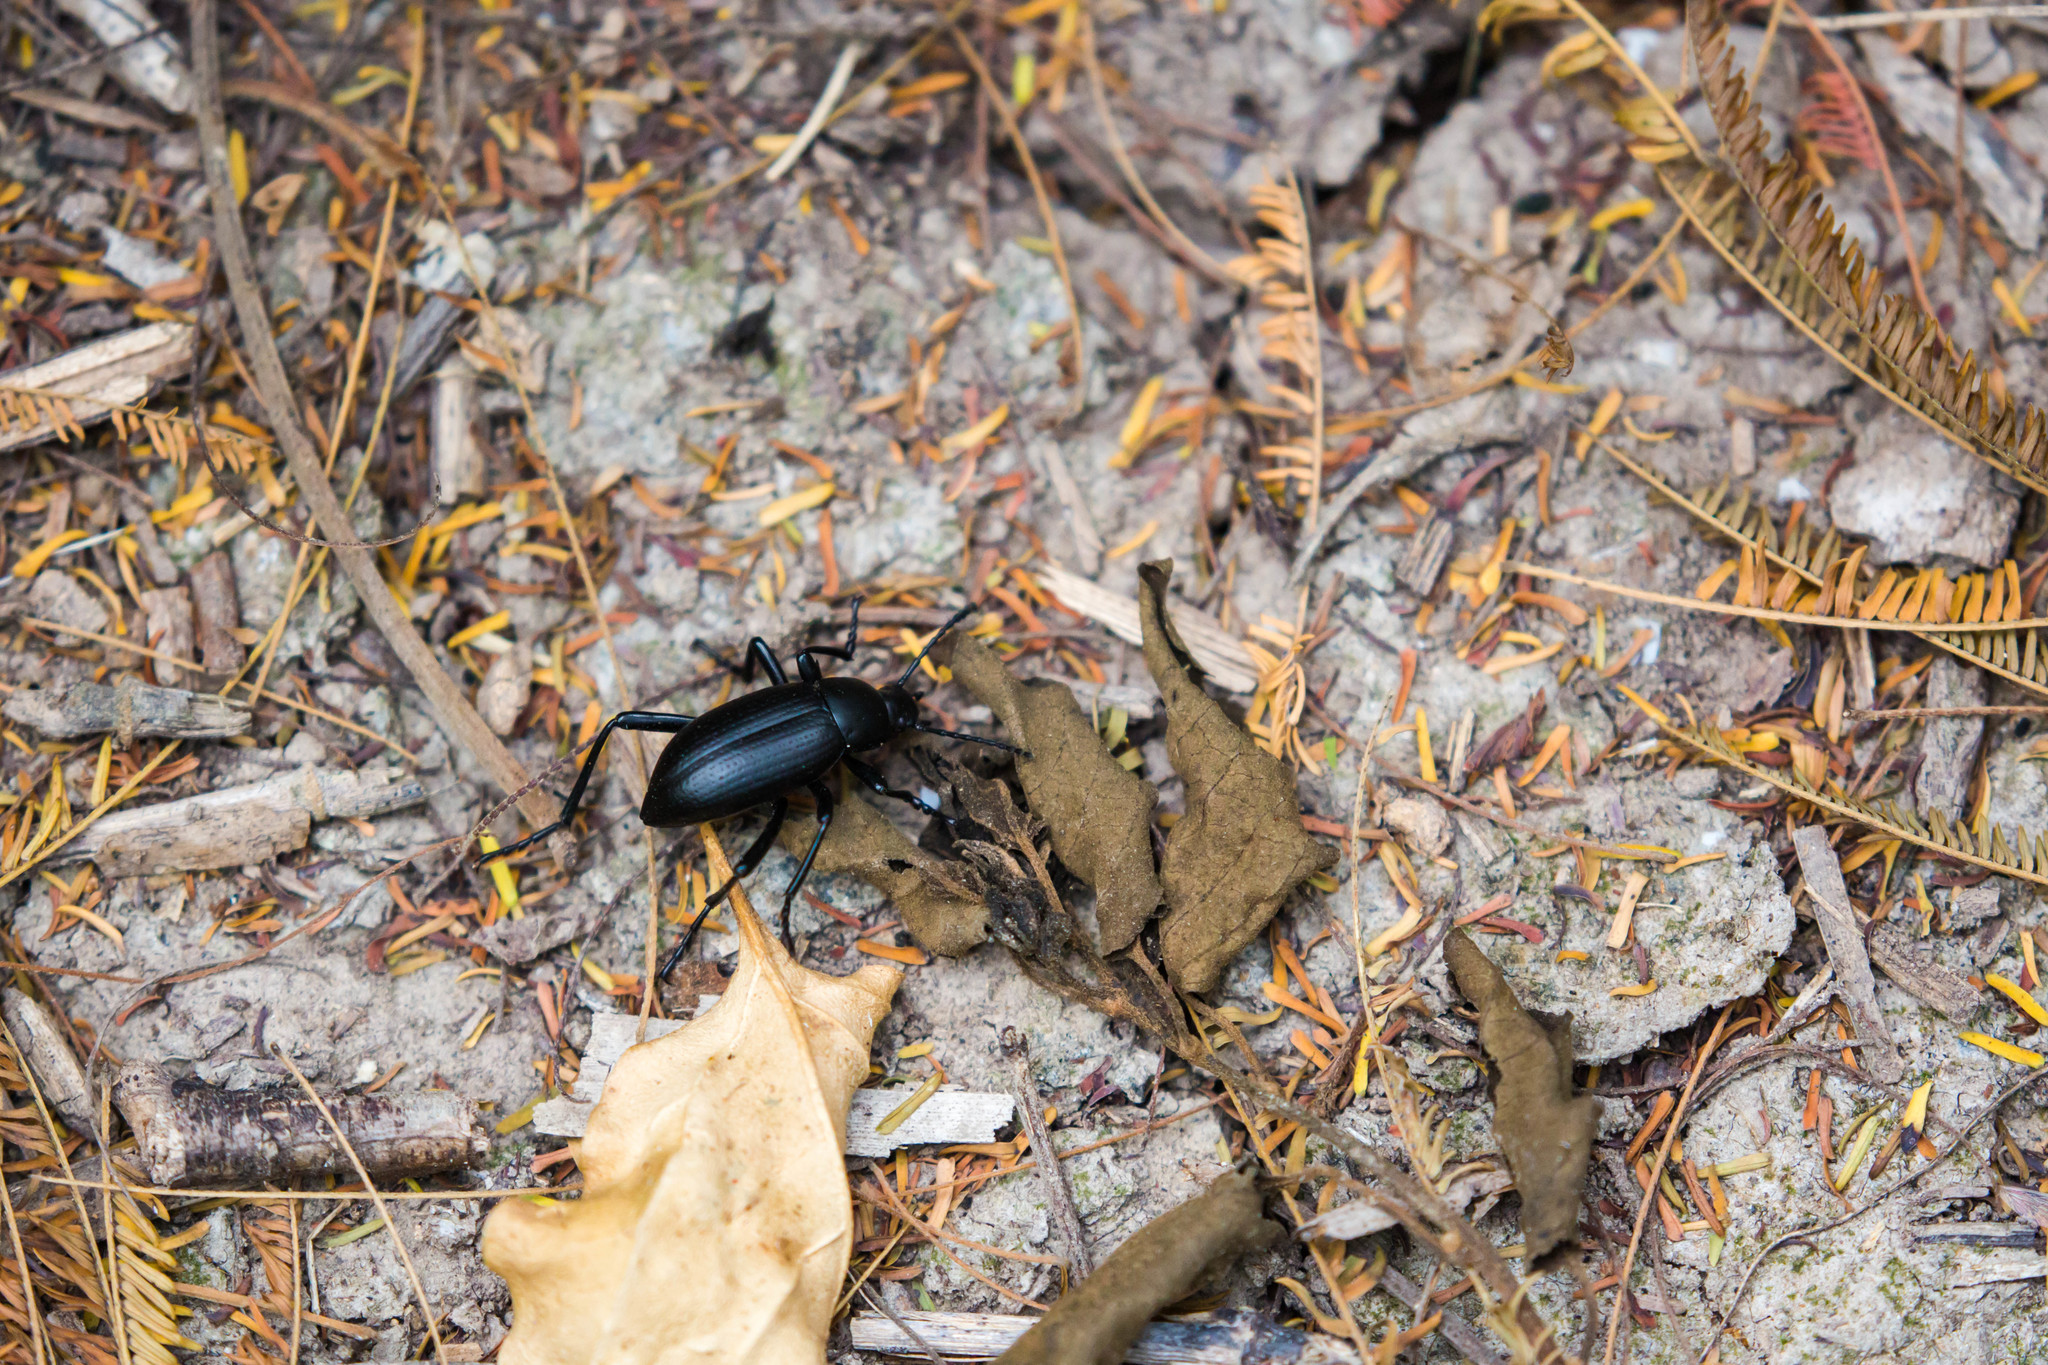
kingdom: Animalia
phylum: Arthropoda
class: Insecta
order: Coleoptera
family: Tenebrionidae
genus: Eleodes
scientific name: Eleodes goryi
